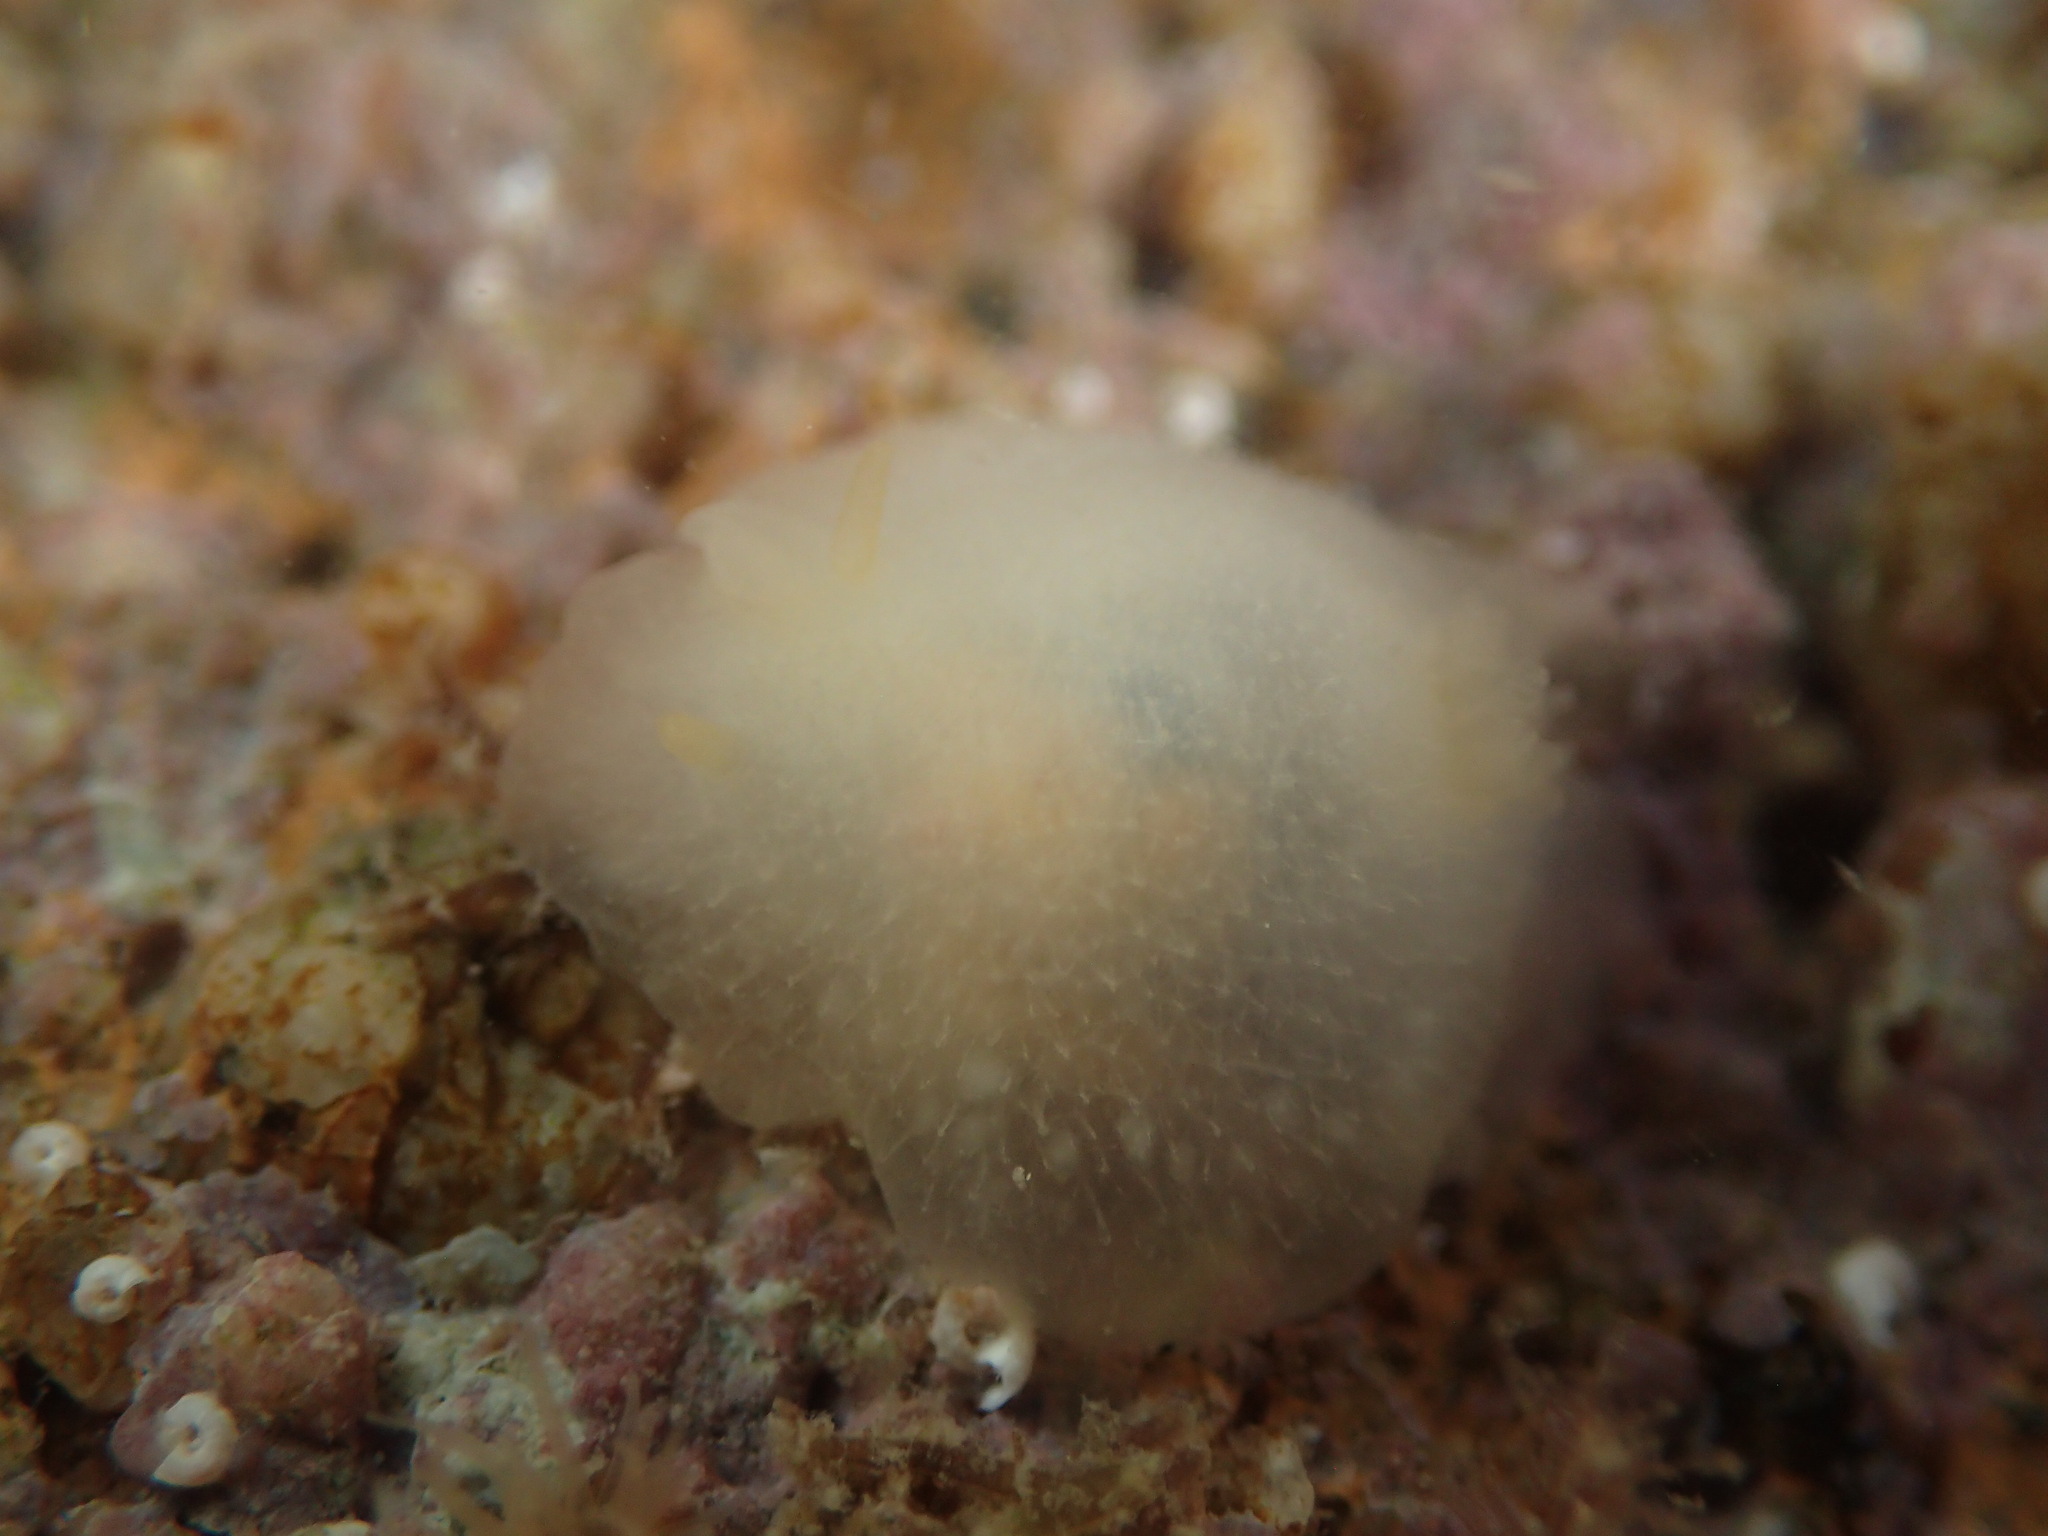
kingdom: Animalia
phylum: Mollusca
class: Gastropoda
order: Nudibranchia
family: Dorididae
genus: Conualevia
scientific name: Conualevia marcusi
